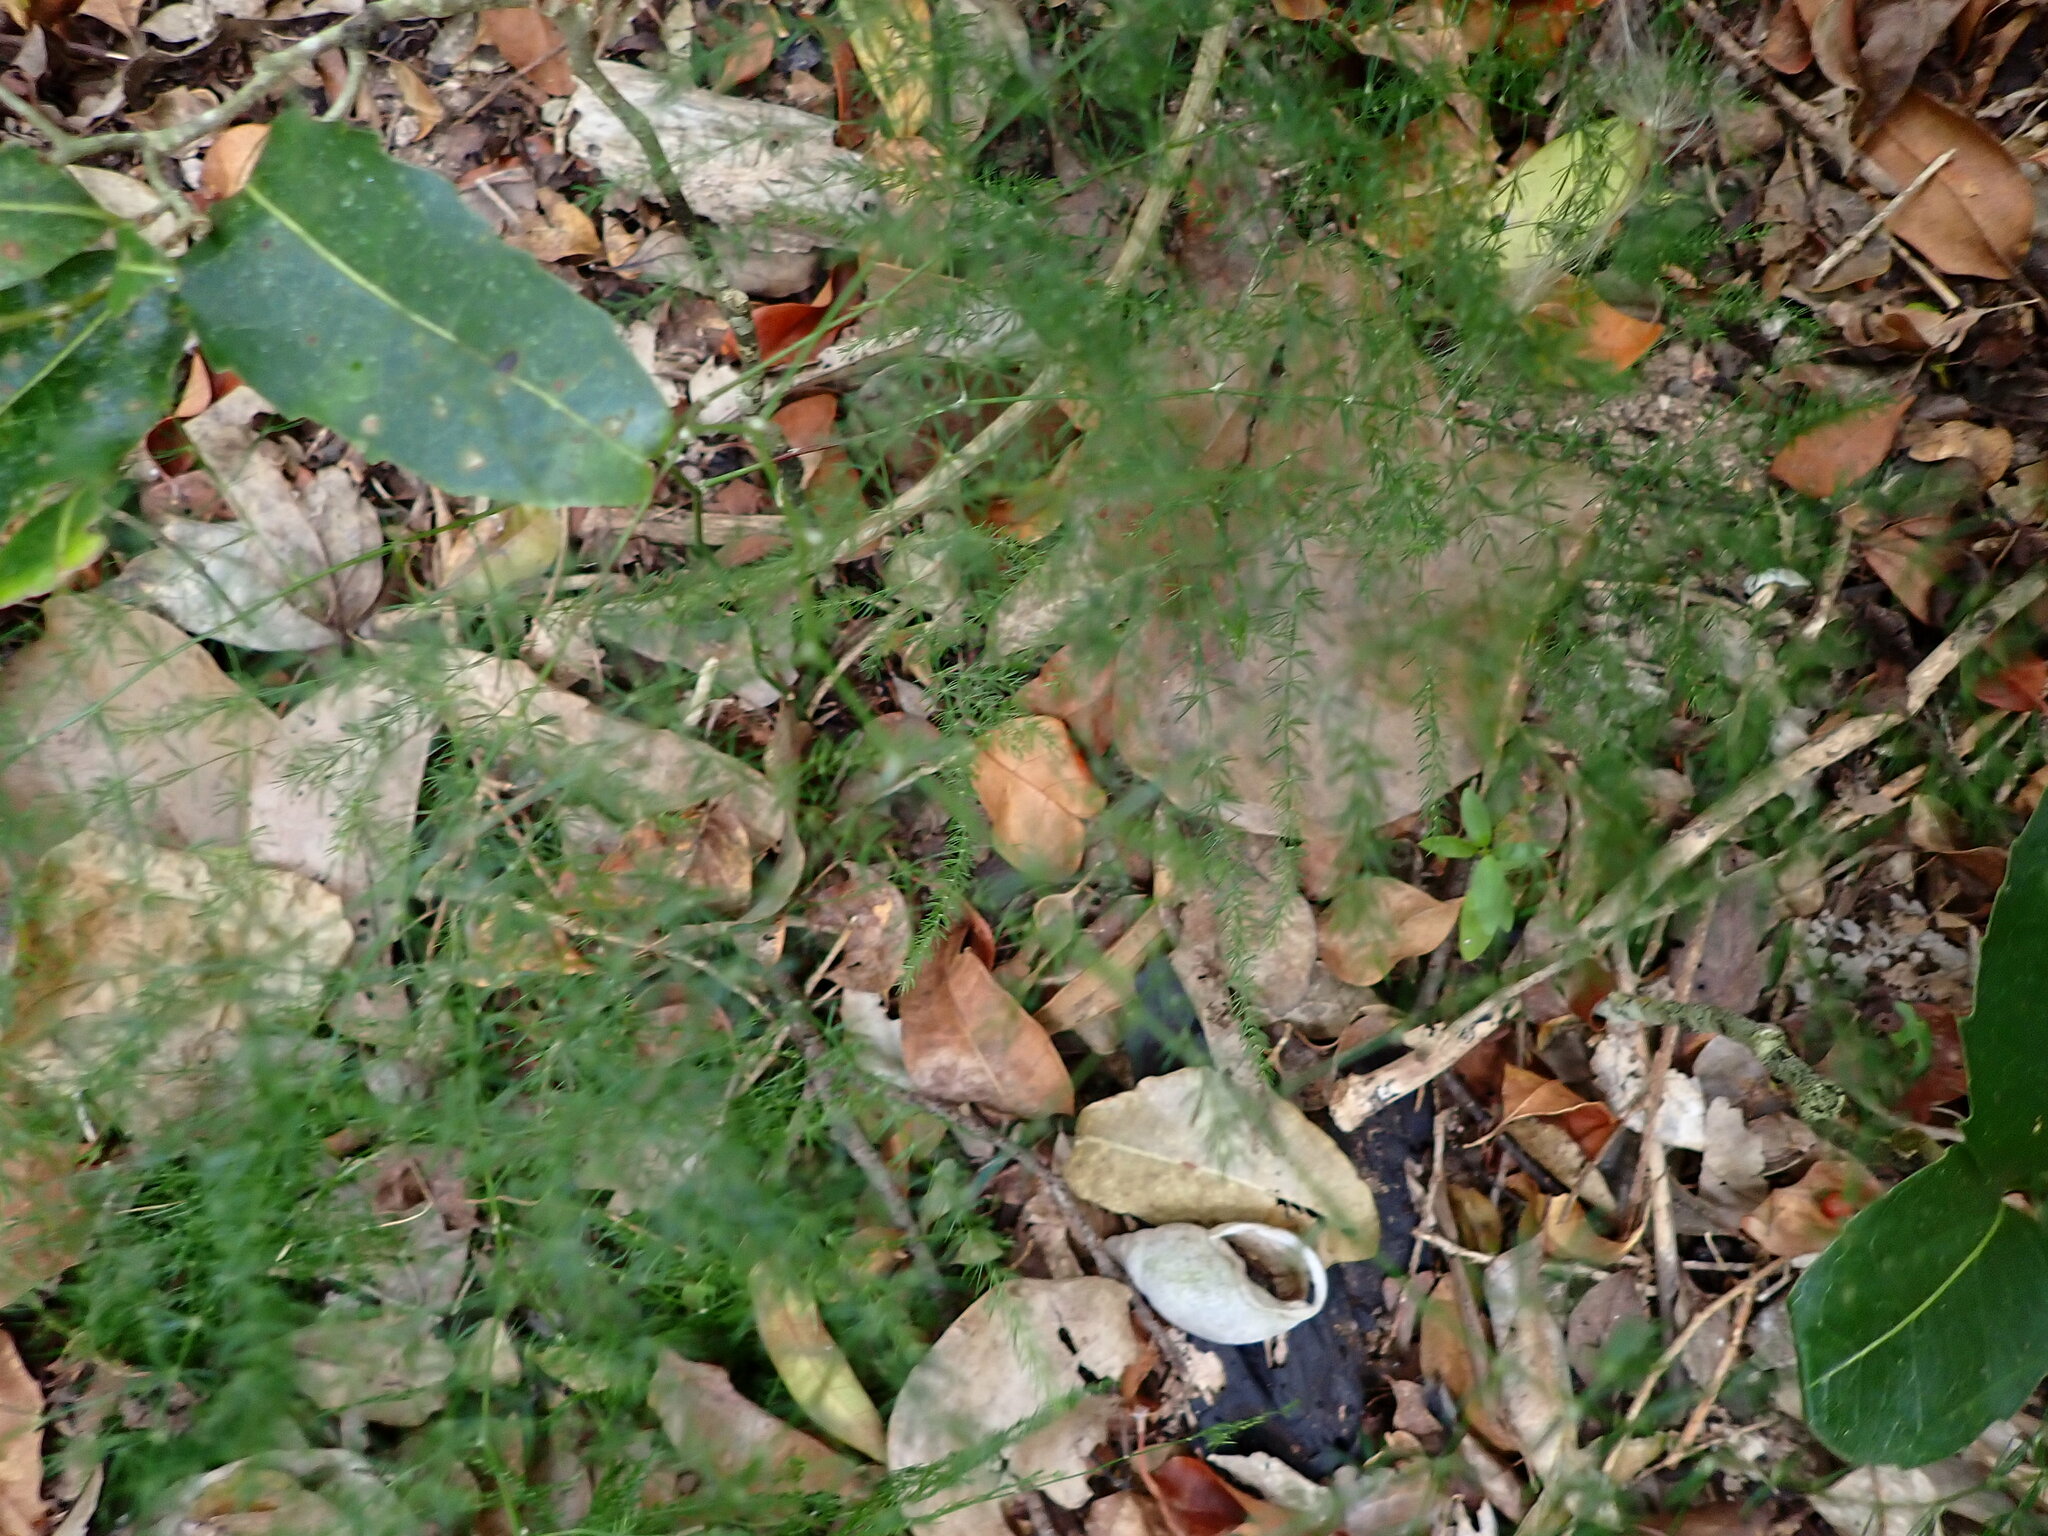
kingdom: Plantae
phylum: Tracheophyta
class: Liliopsida
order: Asparagales
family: Asparagaceae
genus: Asparagus
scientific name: Asparagus setaceus
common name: Common asparagus fern
